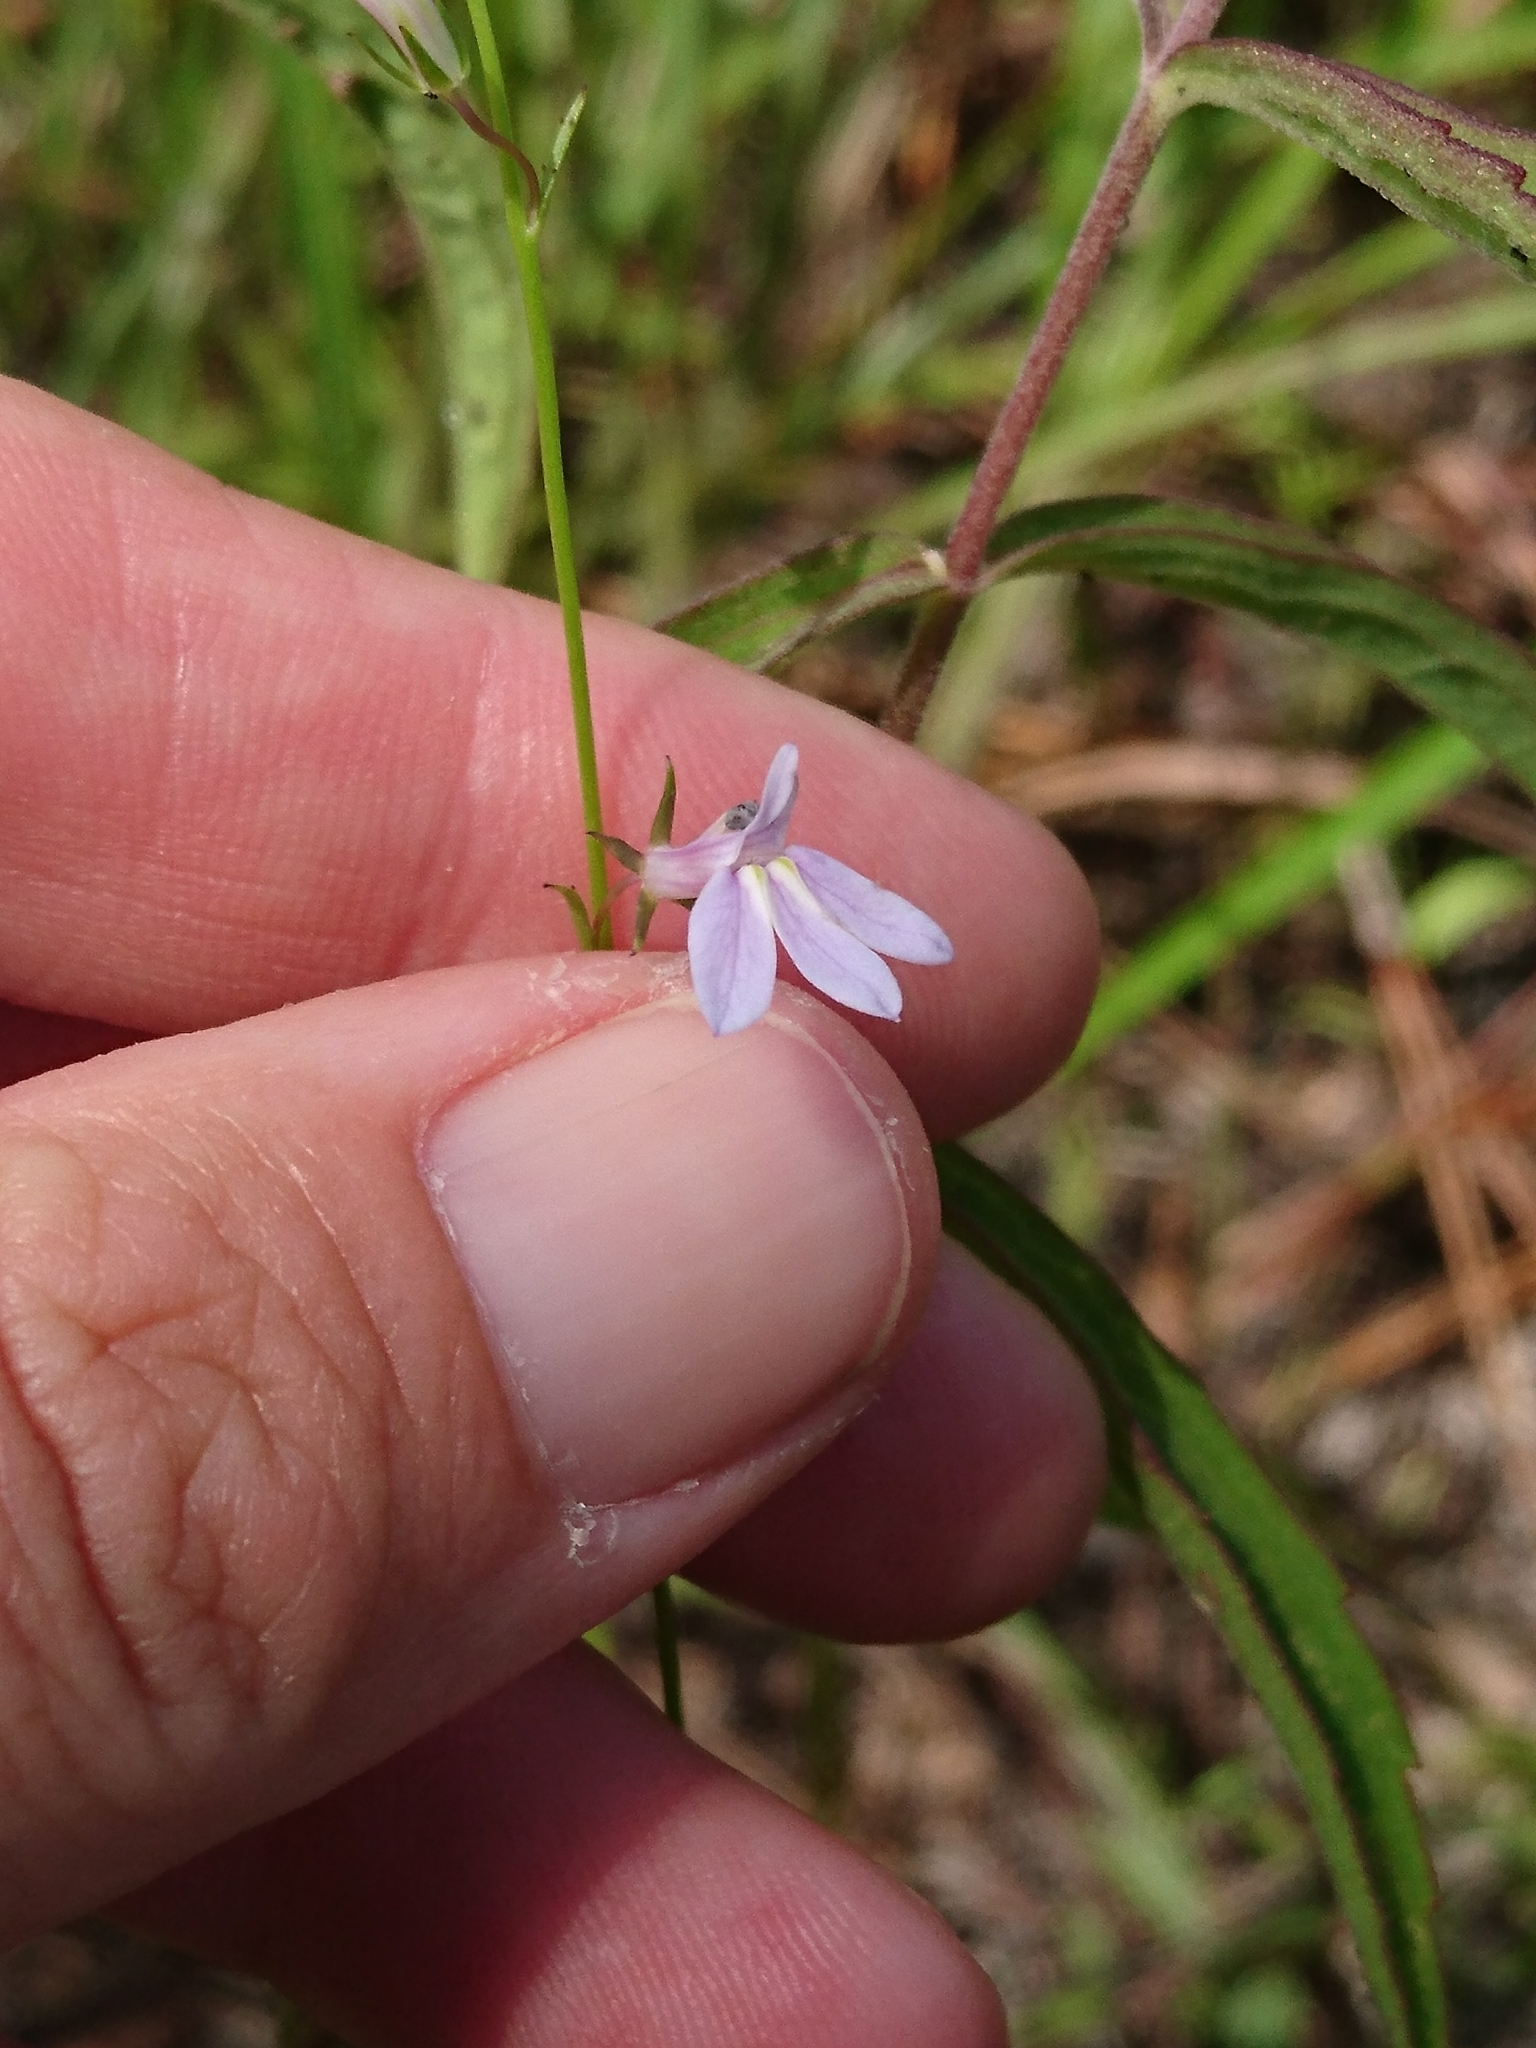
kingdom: Plantae
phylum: Tracheophyta
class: Magnoliopsida
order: Asterales
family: Campanulaceae
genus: Lobelia
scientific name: Lobelia nuttallii
